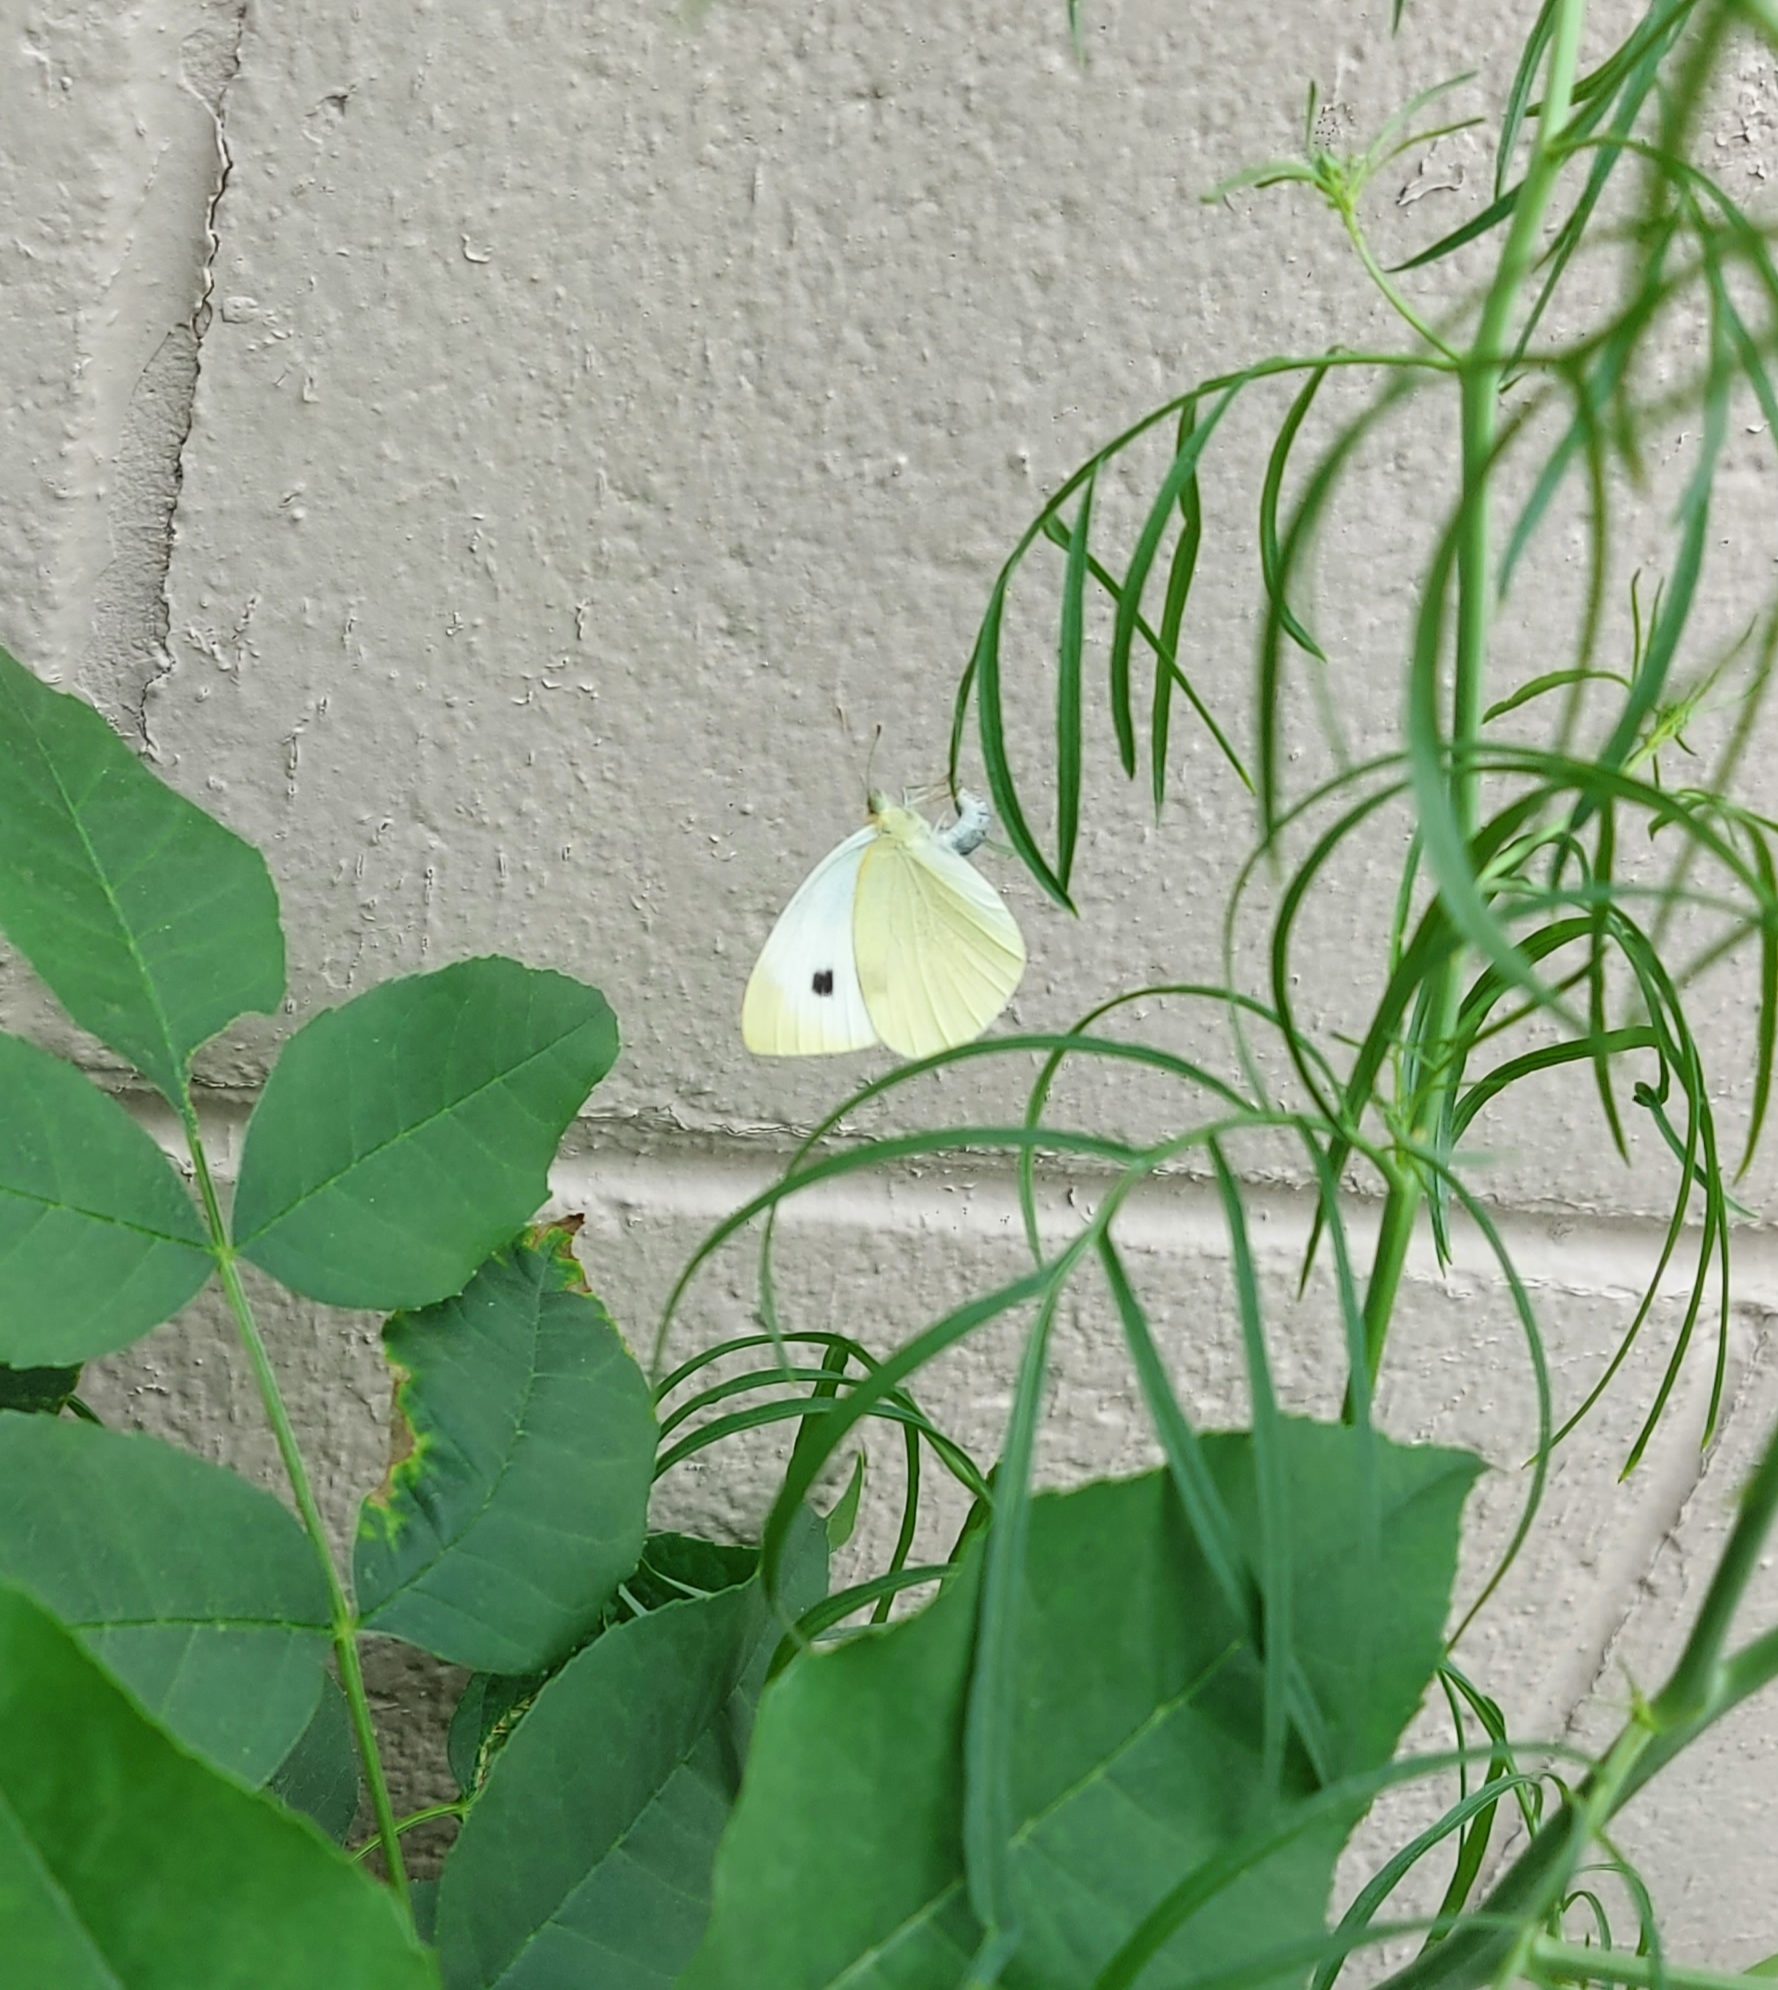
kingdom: Animalia
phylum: Arthropoda
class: Insecta
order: Lepidoptera
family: Pieridae
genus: Pieris
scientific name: Pieris rapae
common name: Small white
